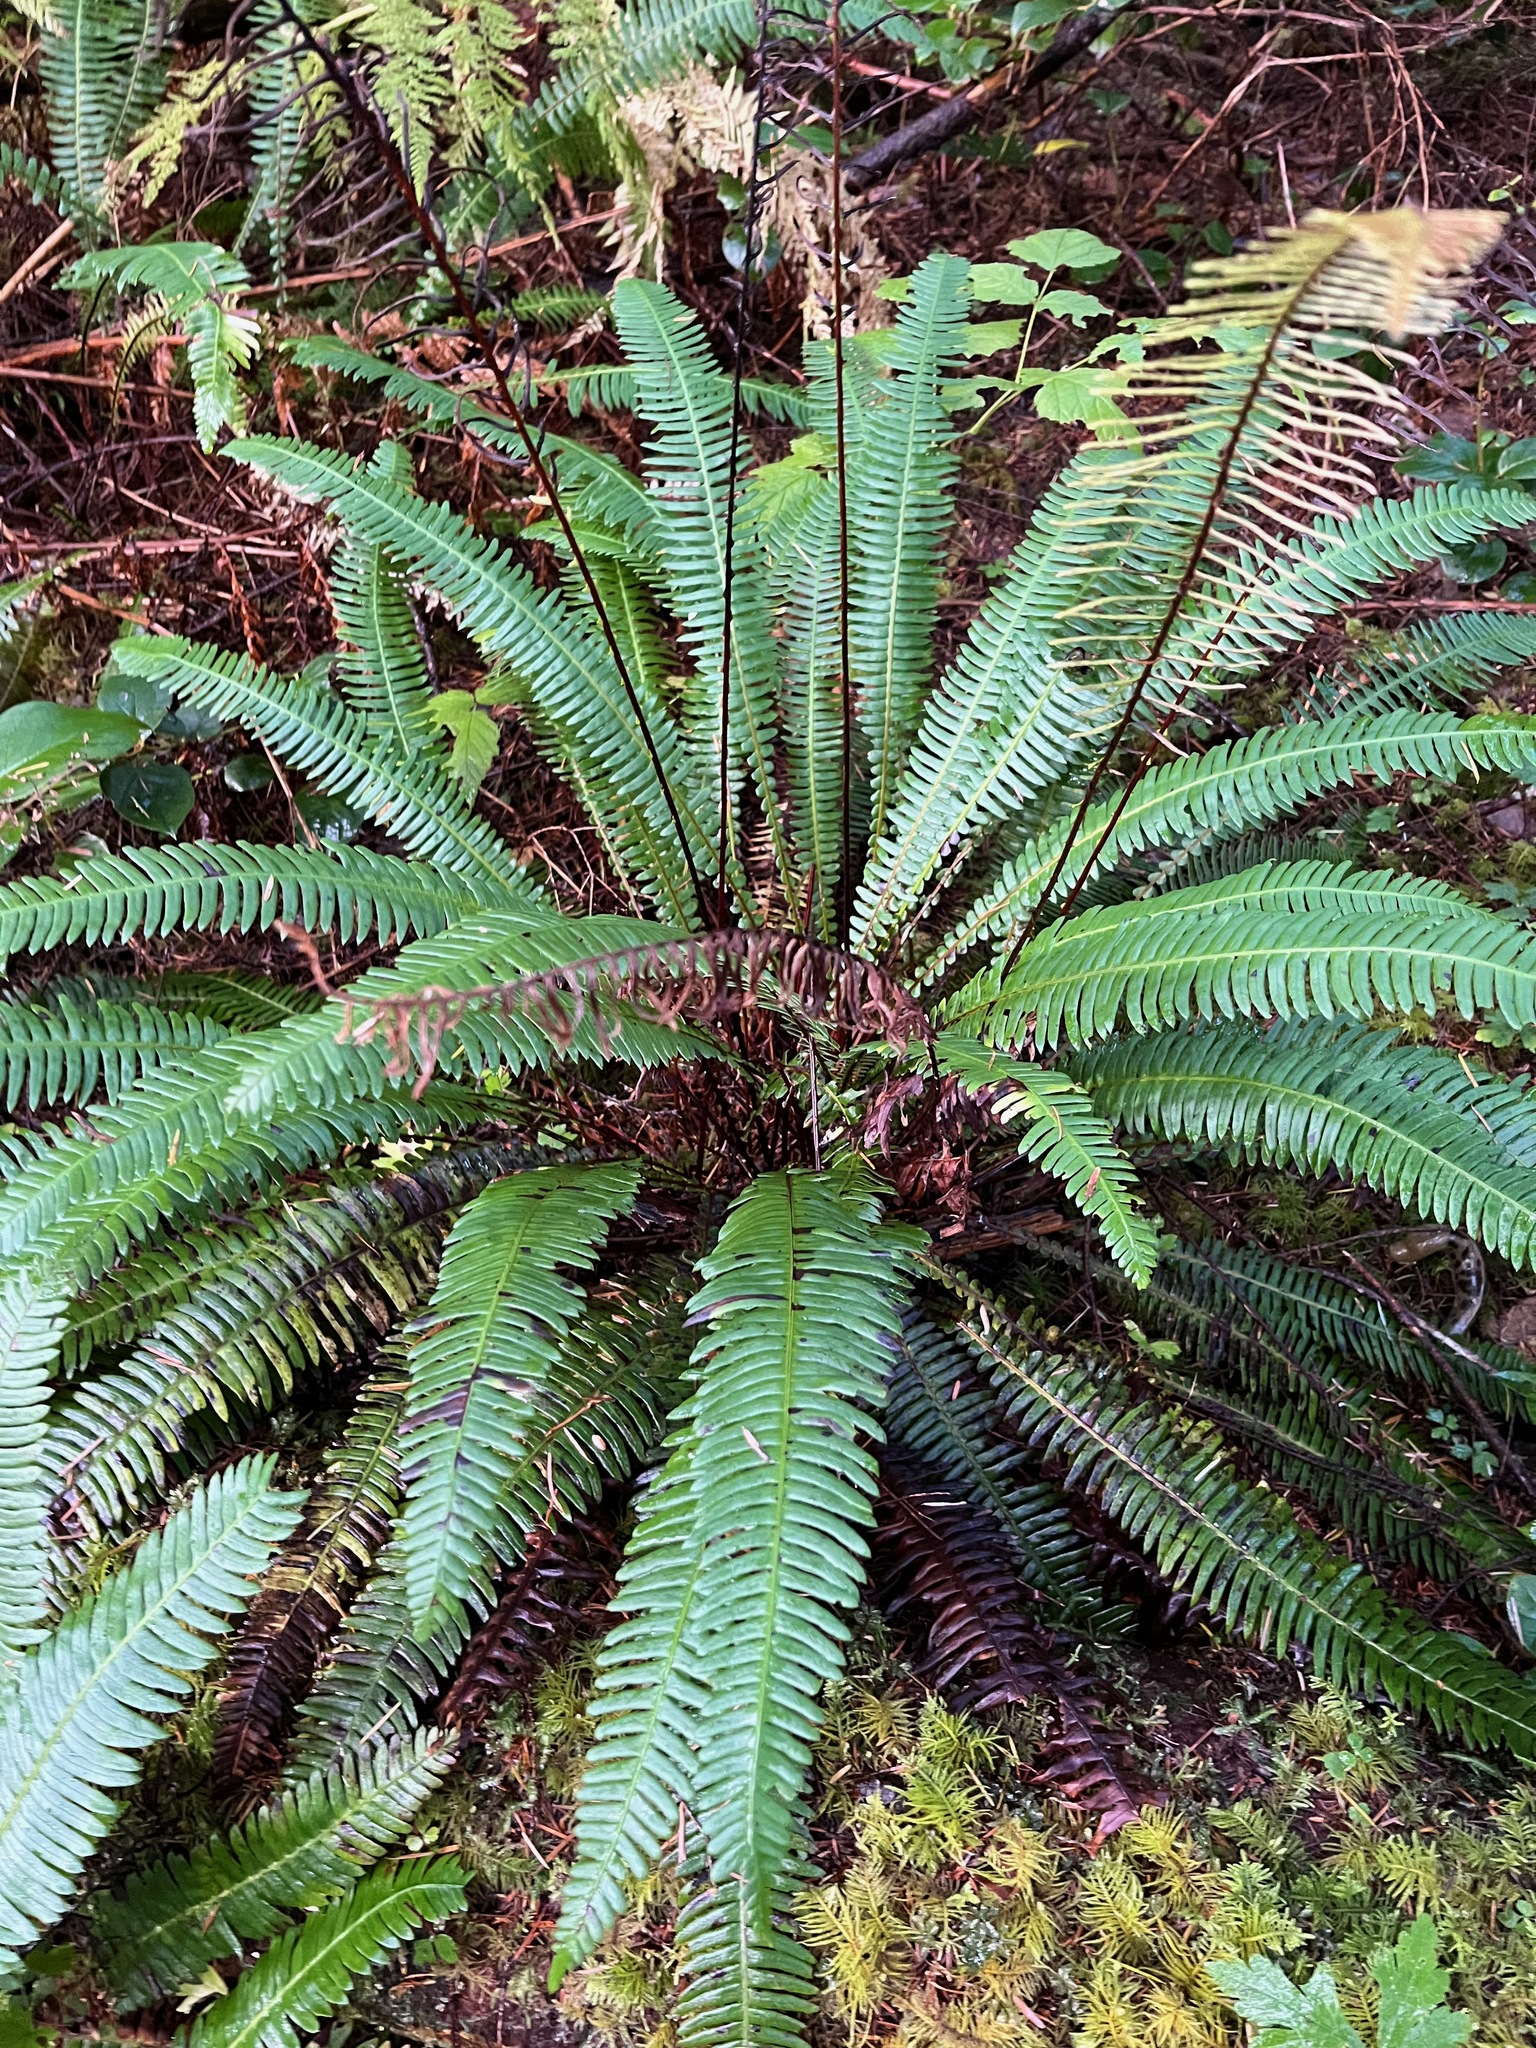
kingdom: Plantae
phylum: Tracheophyta
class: Polypodiopsida
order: Polypodiales
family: Blechnaceae
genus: Struthiopteris
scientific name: Struthiopteris spicant
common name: Deer fern
